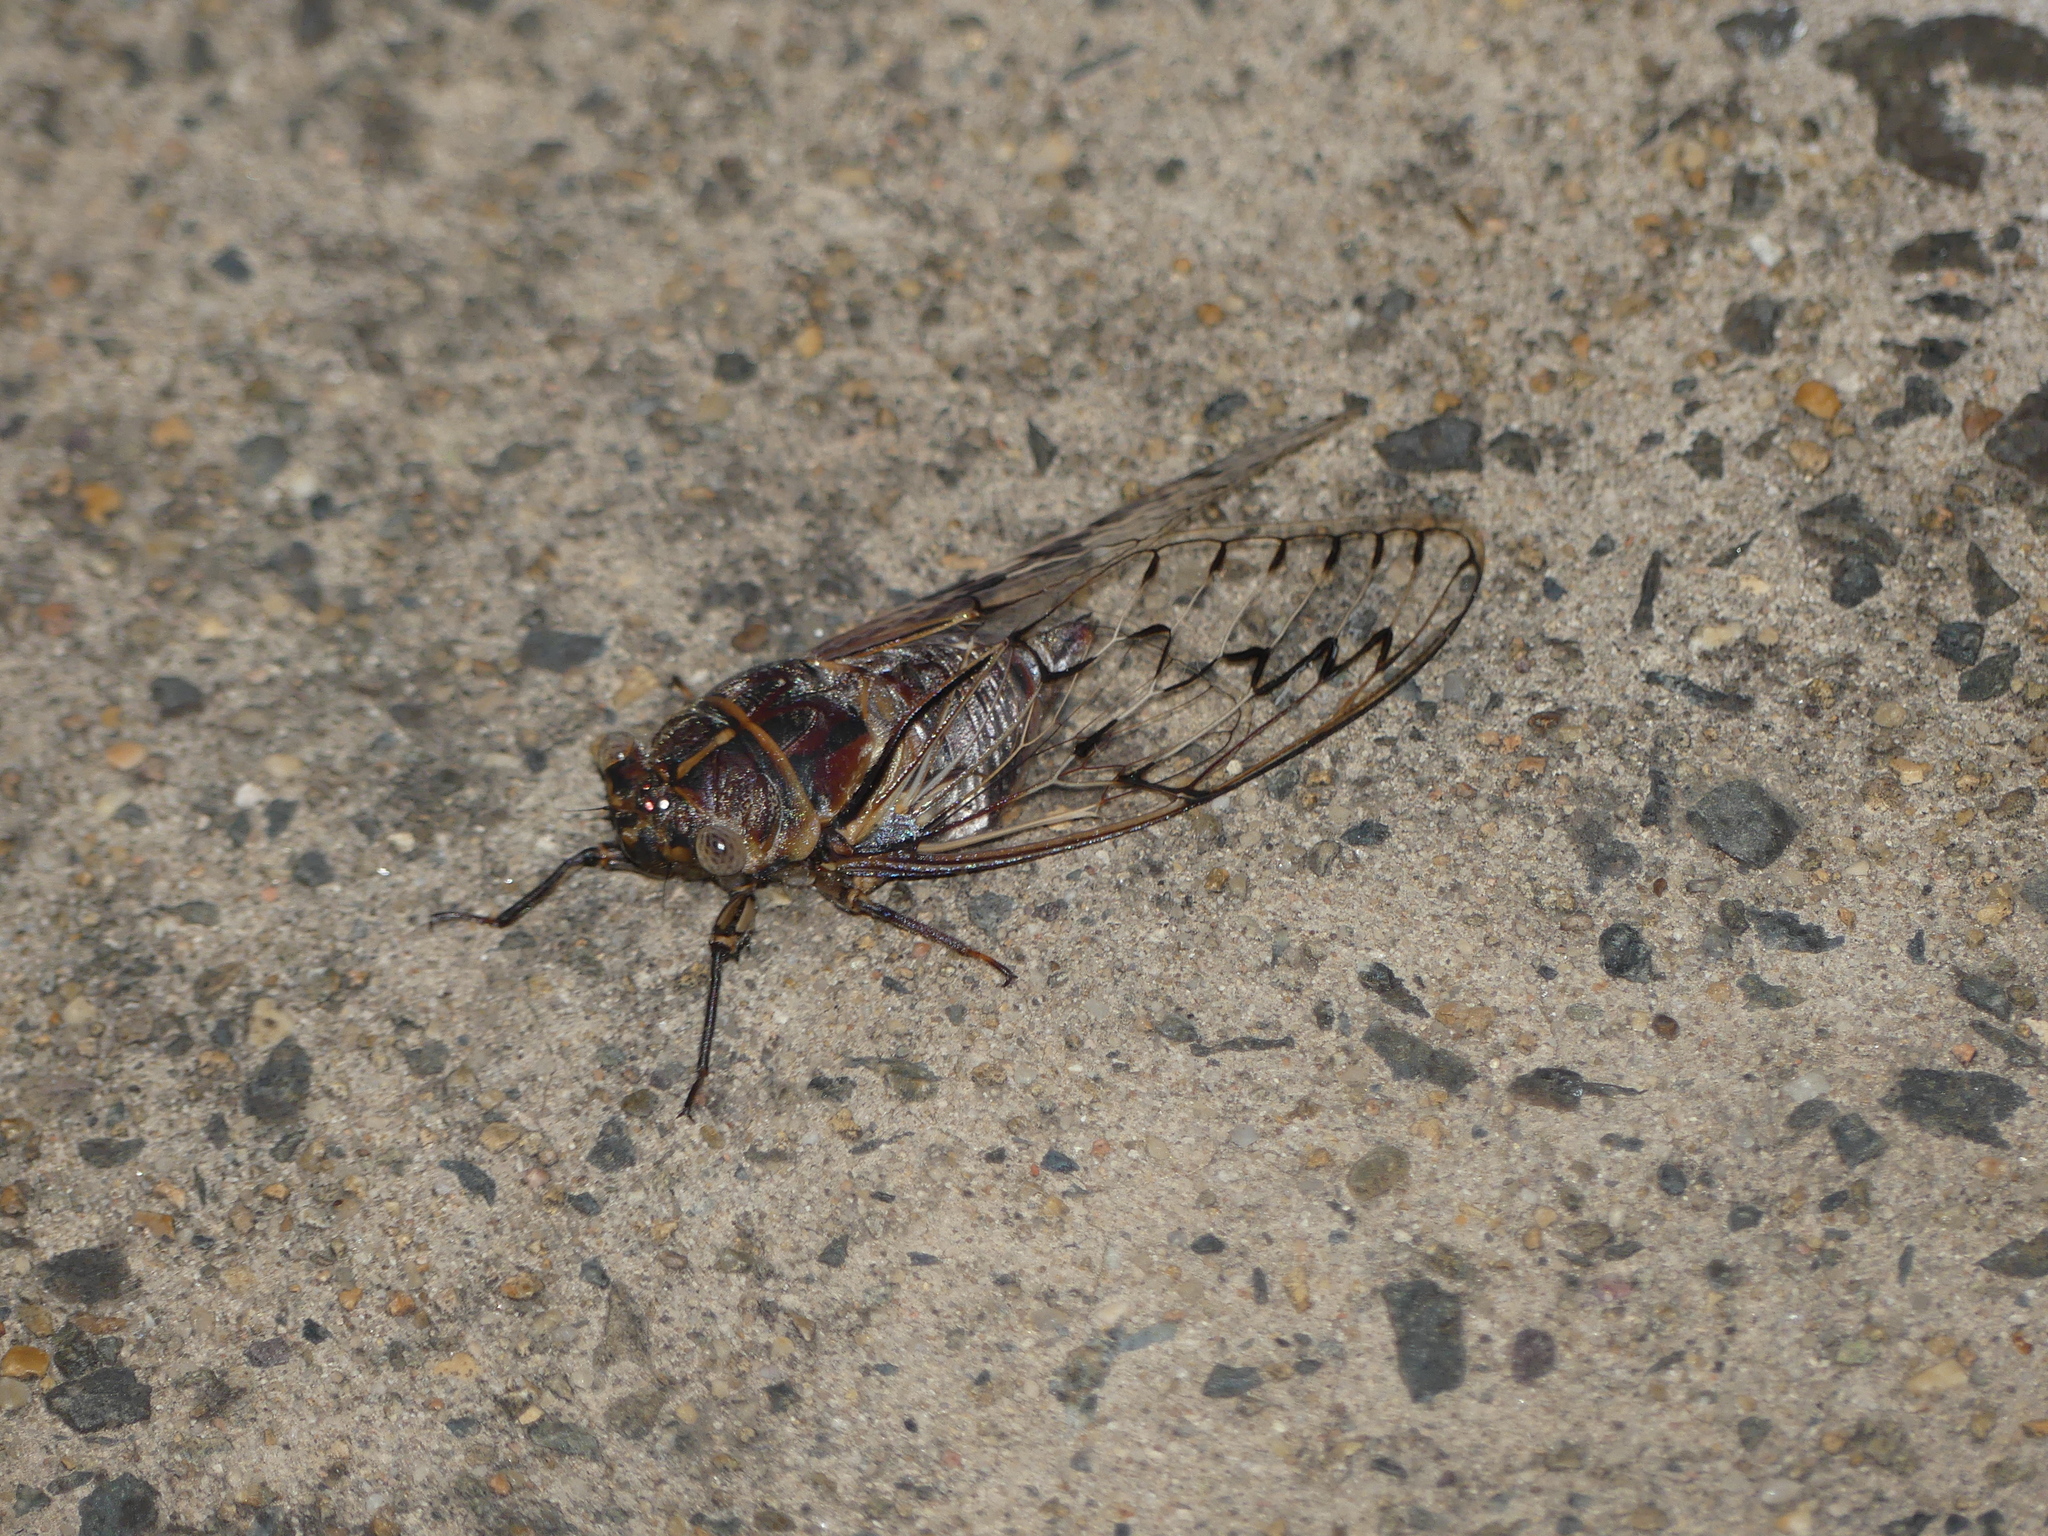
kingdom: Animalia
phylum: Arthropoda
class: Insecta
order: Hemiptera
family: Cicadidae
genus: Henicopsaltria
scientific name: Henicopsaltria eydouxii
